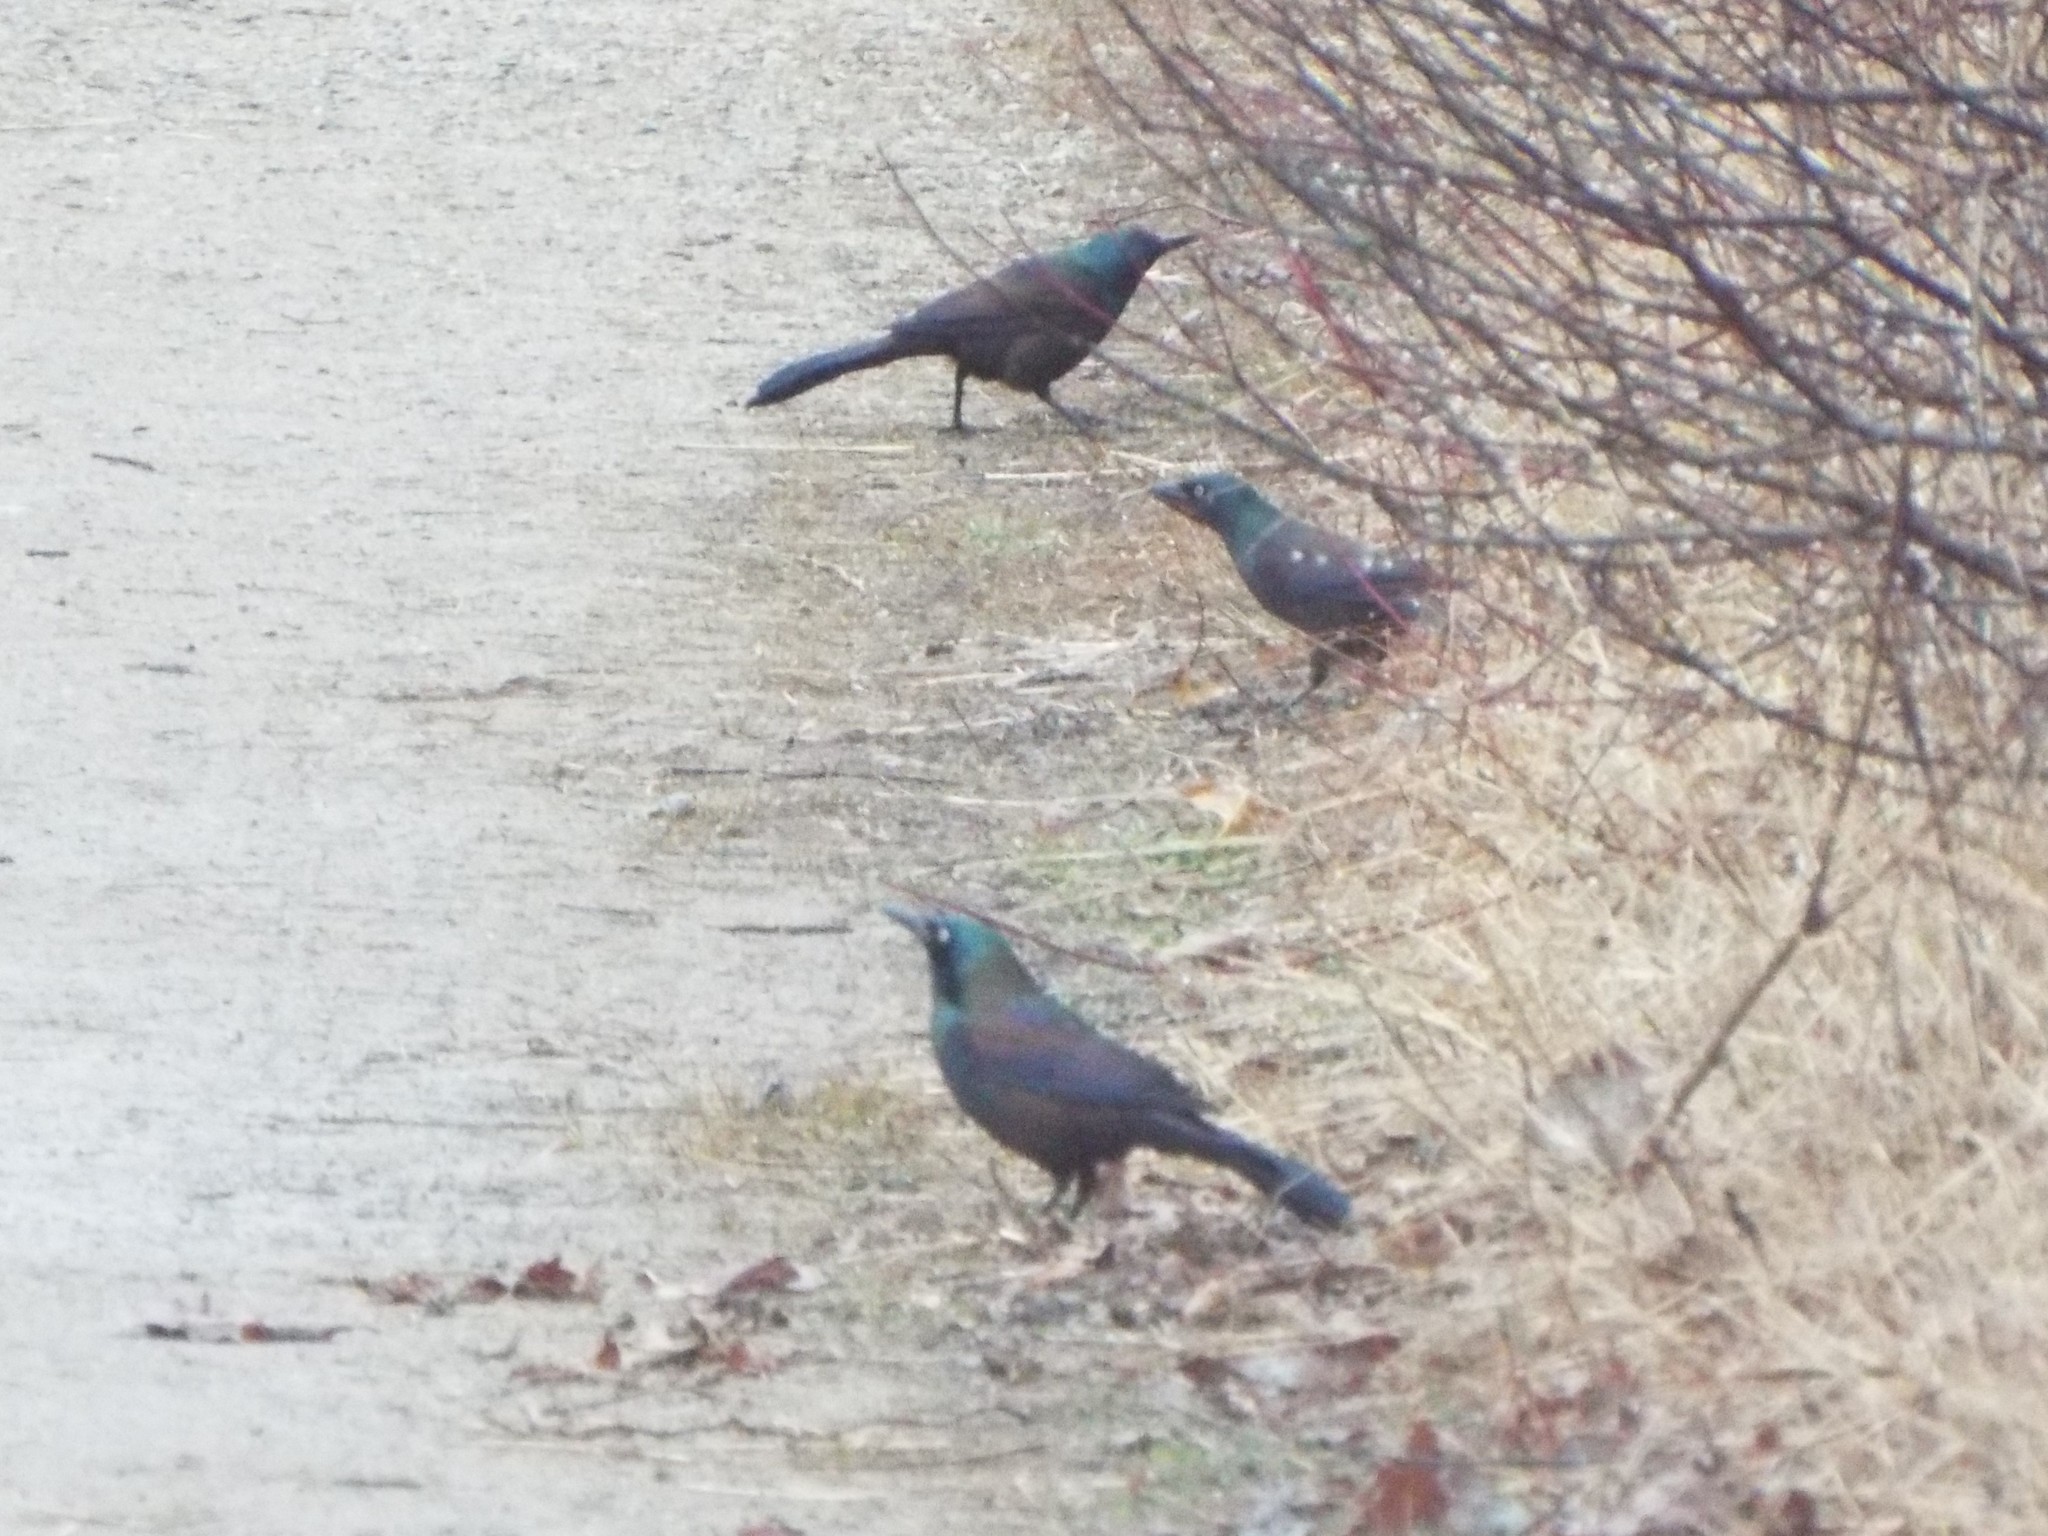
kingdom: Animalia
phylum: Chordata
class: Aves
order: Passeriformes
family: Icteridae
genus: Quiscalus
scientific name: Quiscalus quiscula
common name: Common grackle
